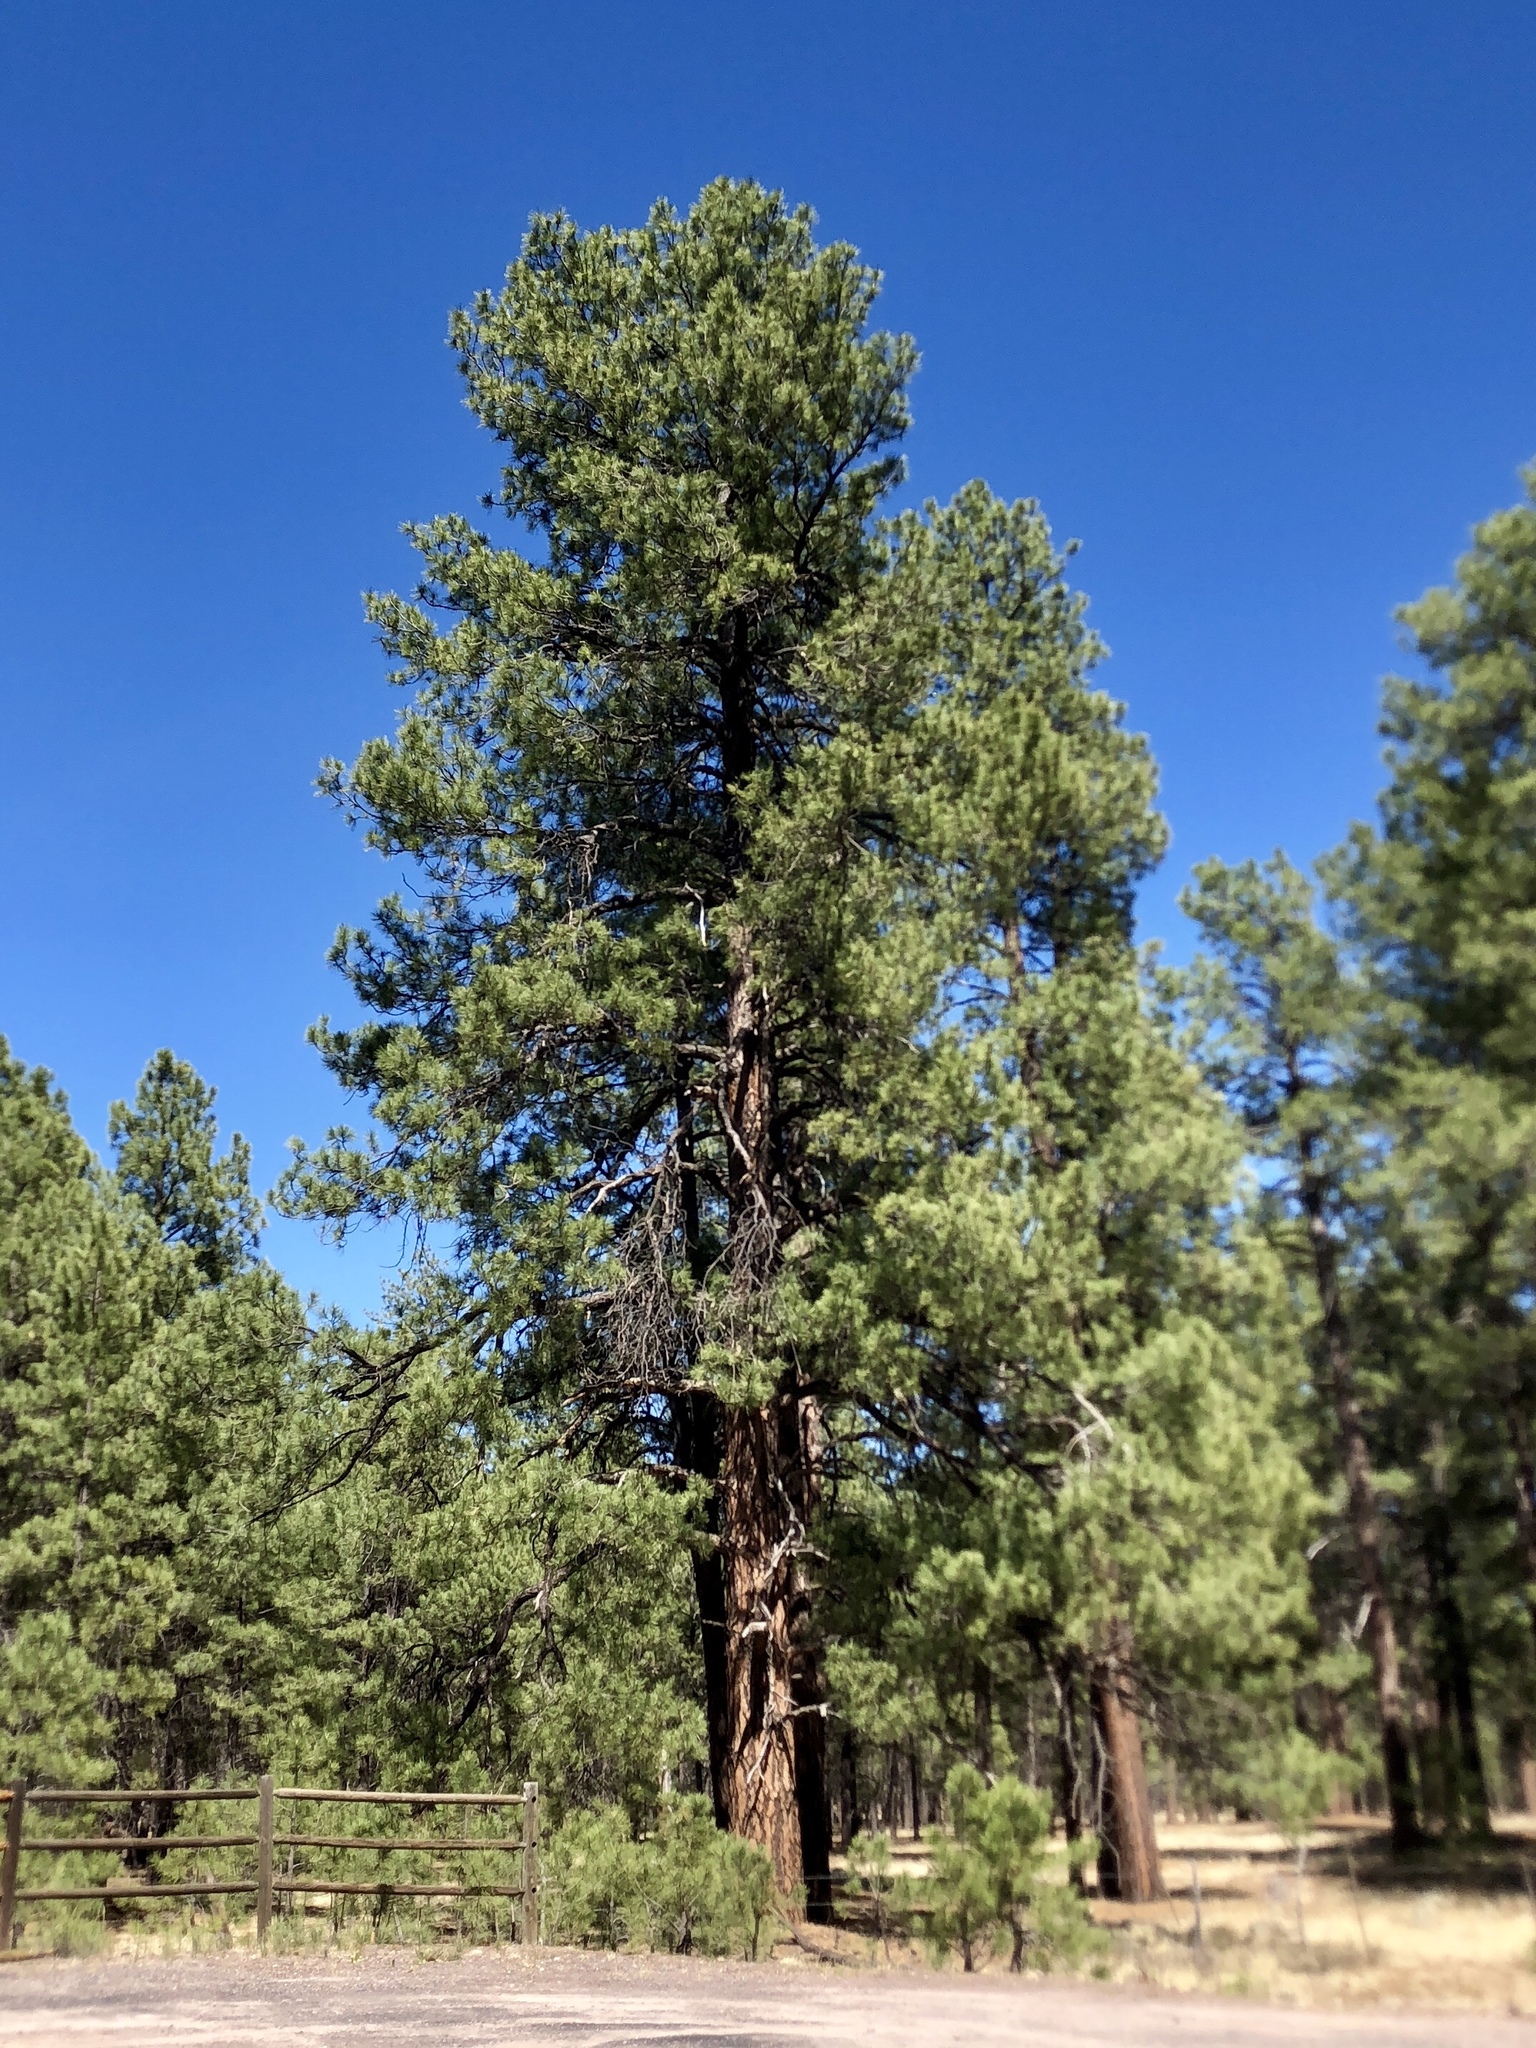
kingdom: Plantae
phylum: Tracheophyta
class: Pinopsida
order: Pinales
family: Pinaceae
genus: Pinus
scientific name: Pinus ponderosa
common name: Western yellow-pine
